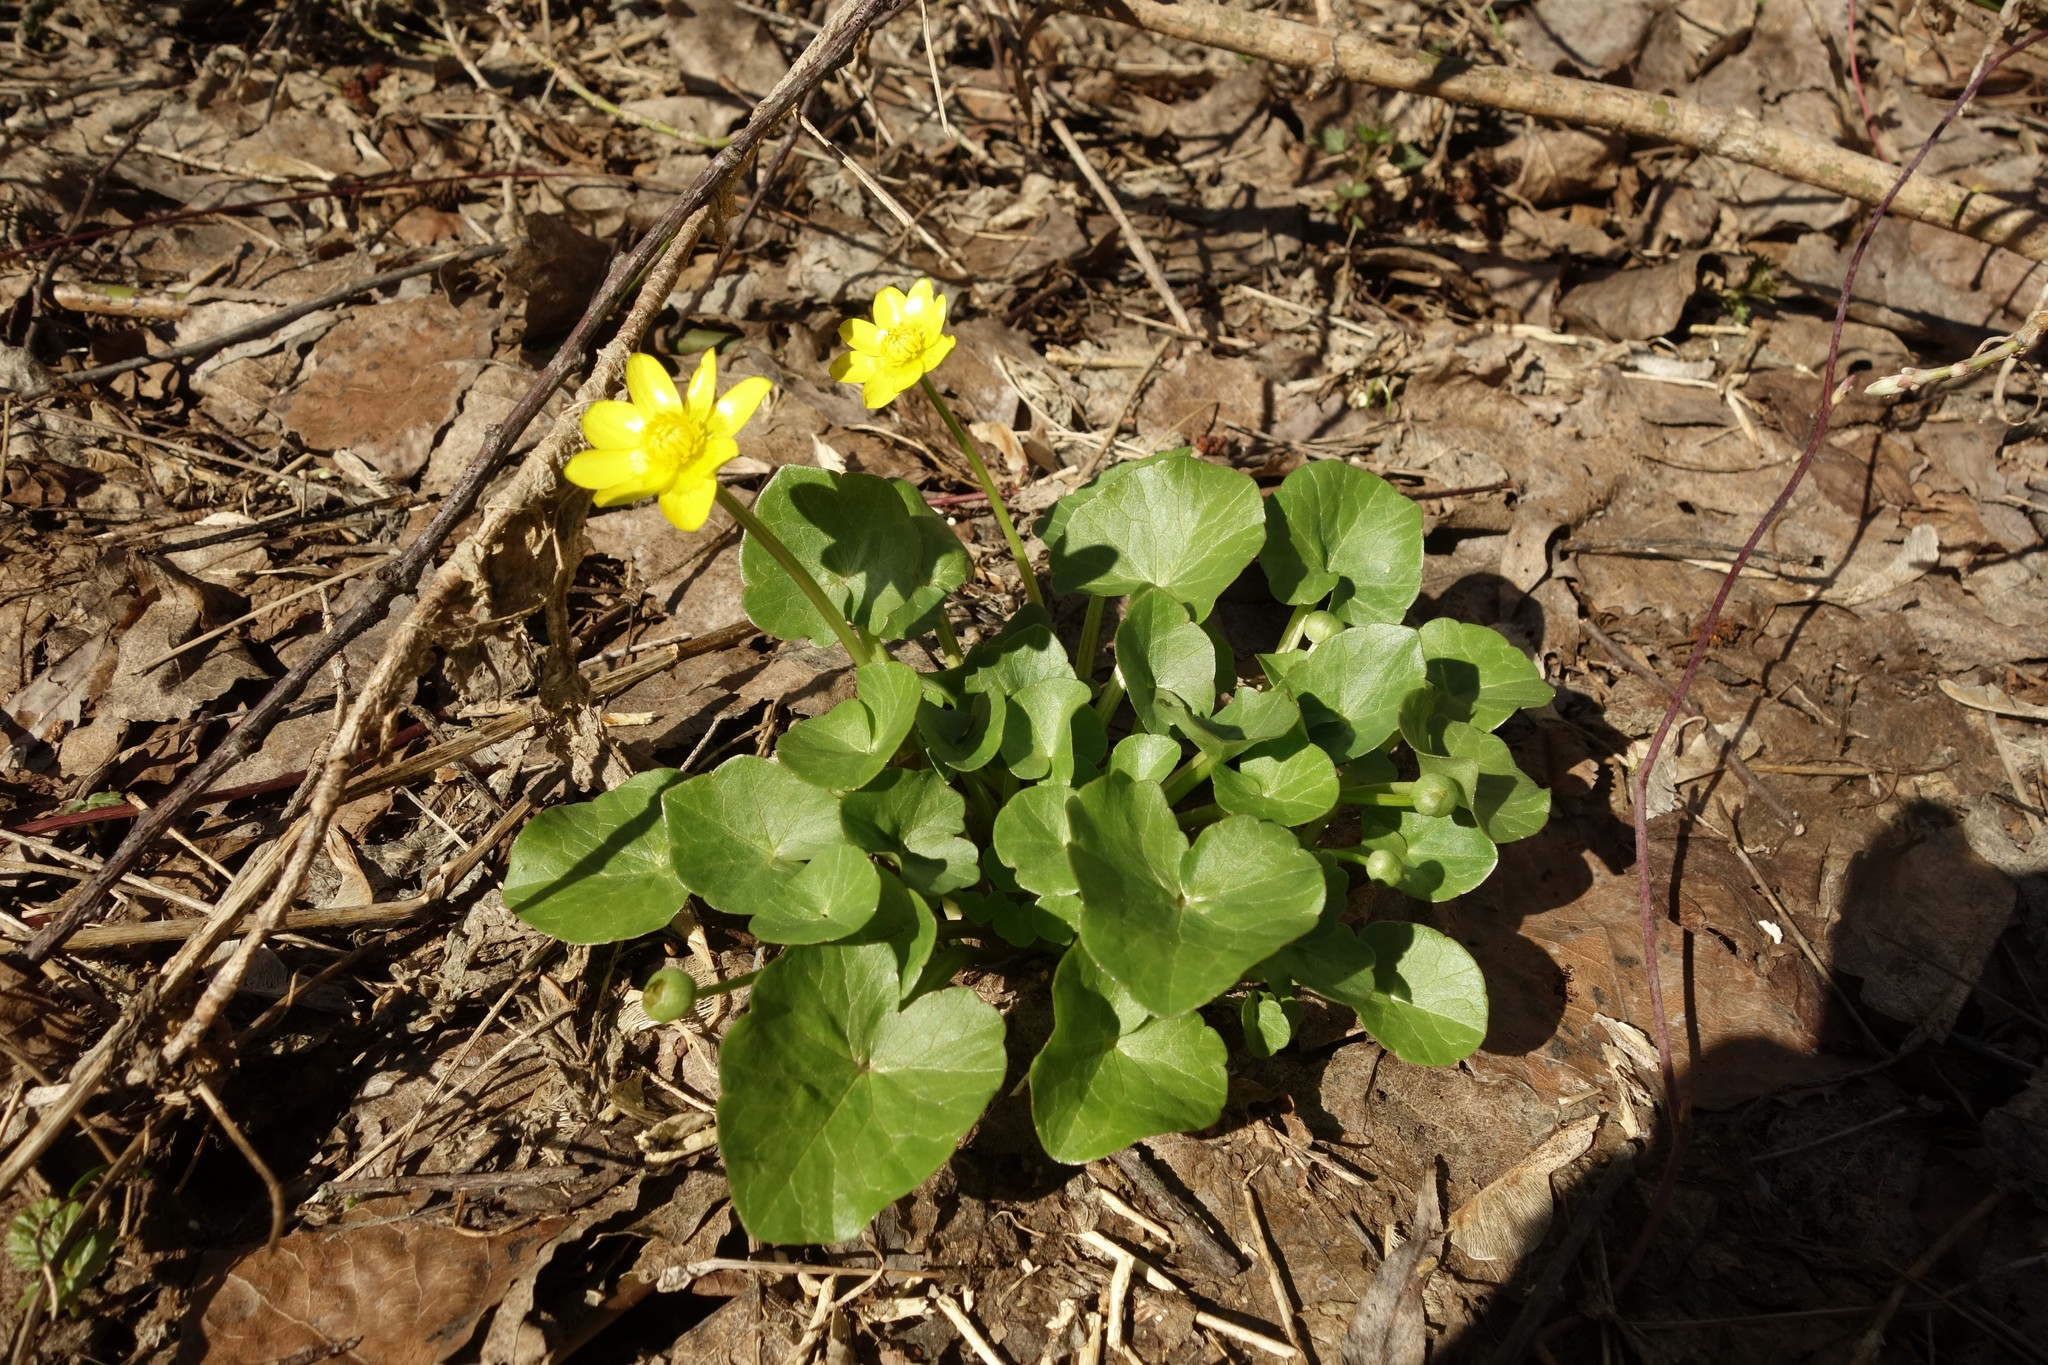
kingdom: Plantae
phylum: Tracheophyta
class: Magnoliopsida
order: Ranunculales
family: Ranunculaceae
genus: Ficaria
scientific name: Ficaria verna
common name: Lesser celandine
